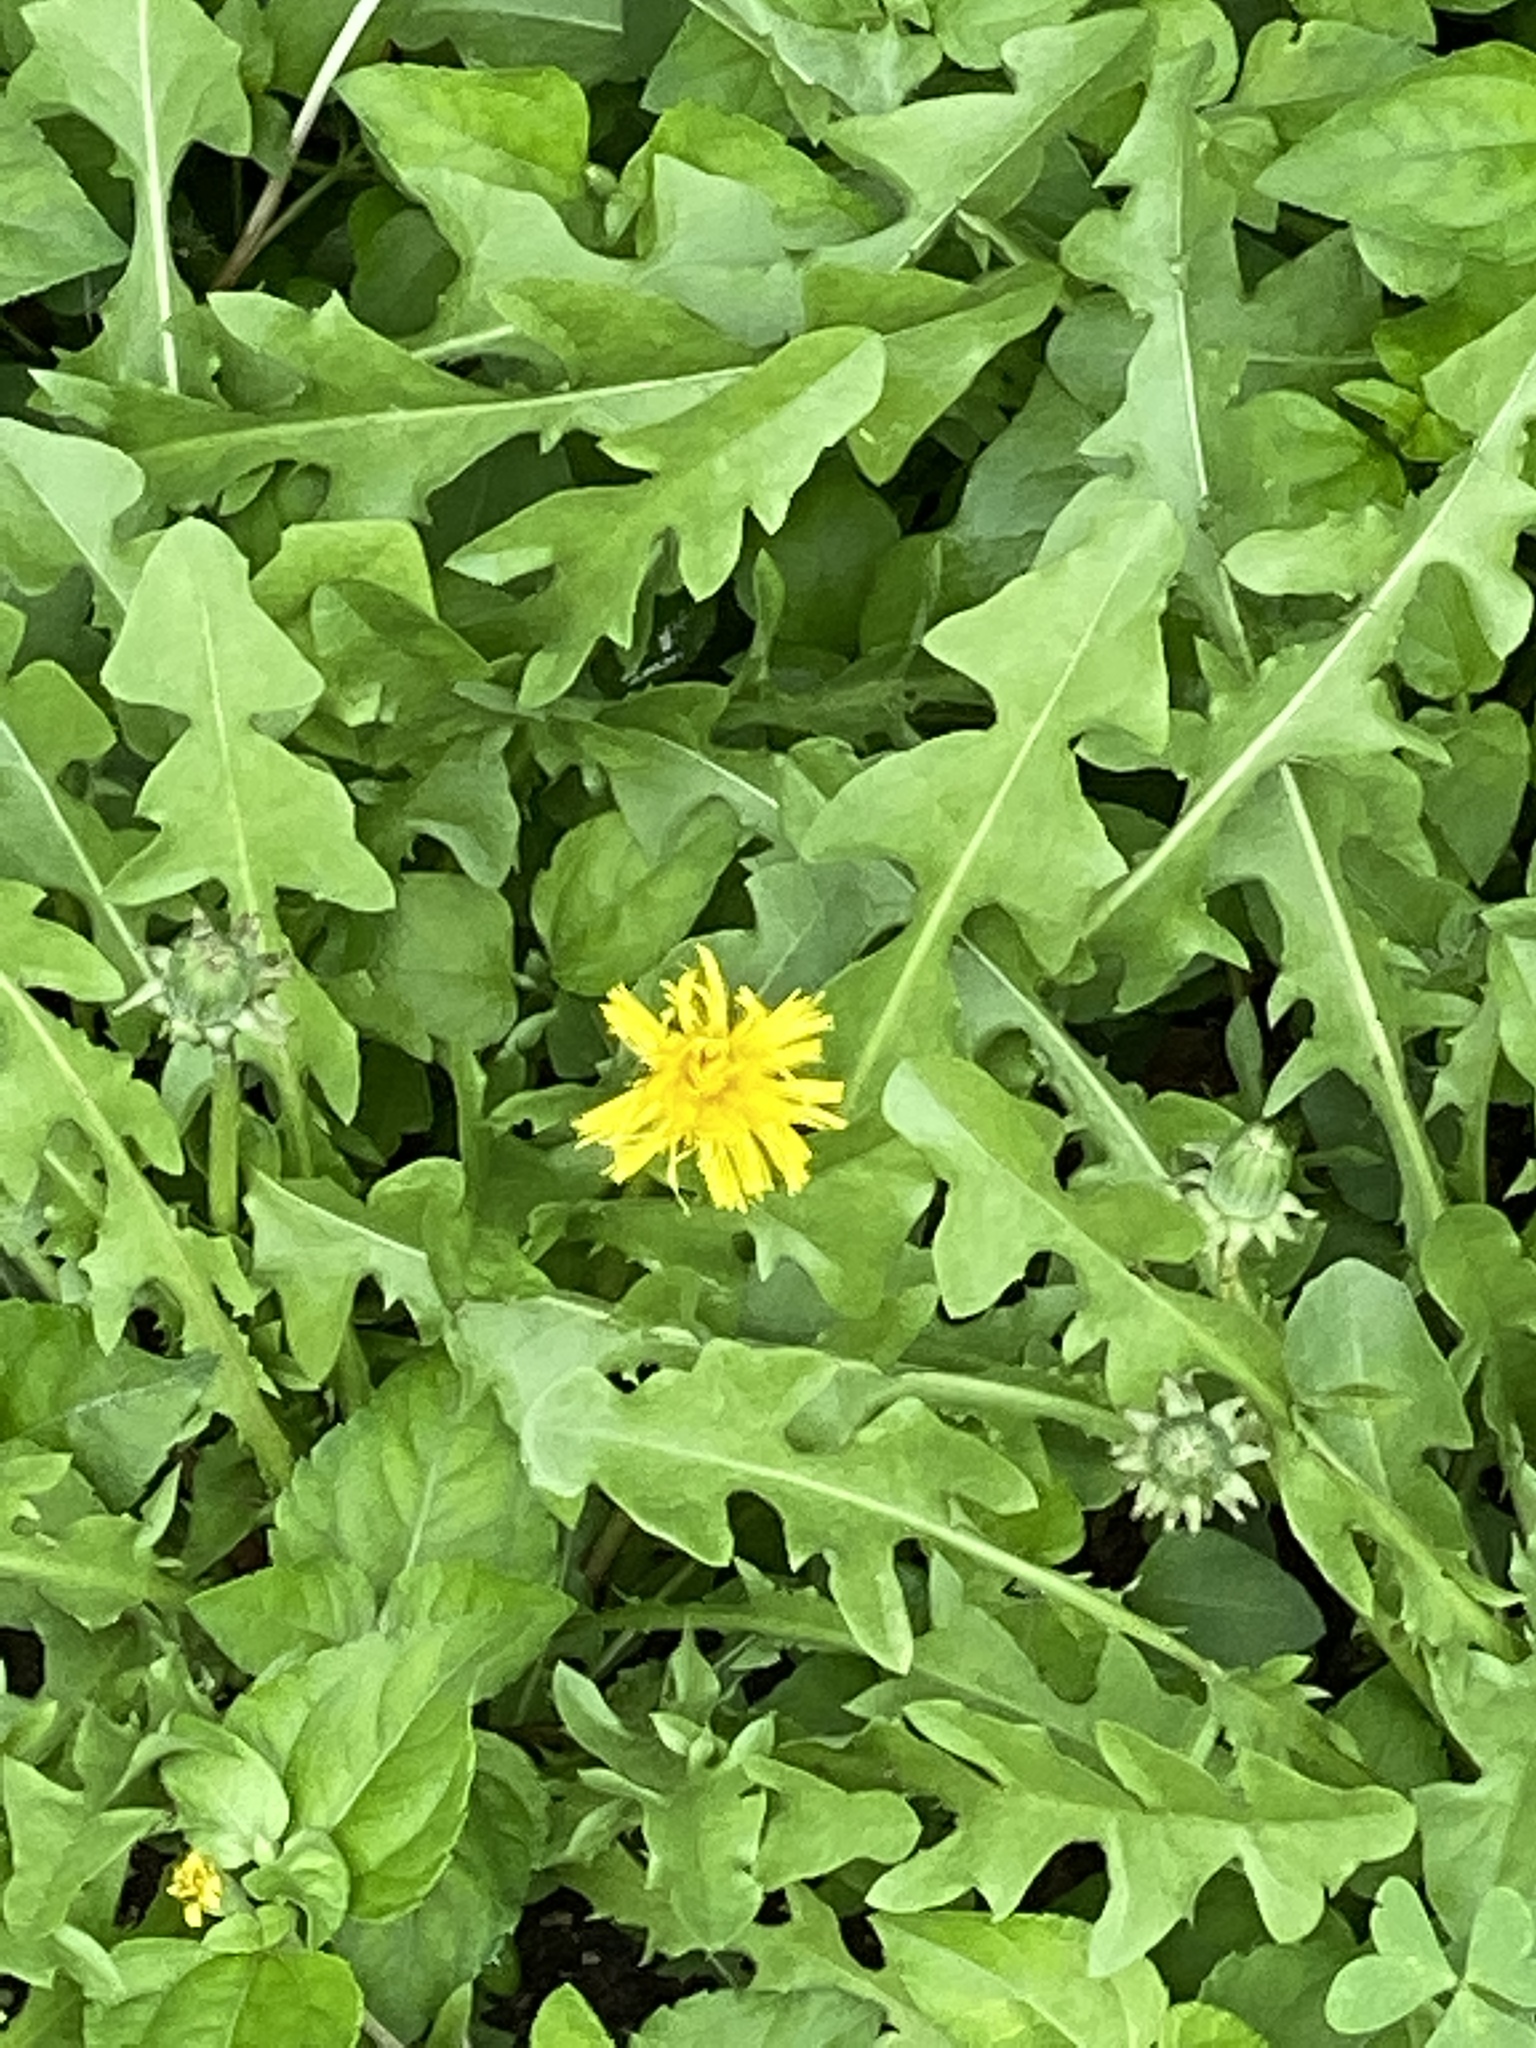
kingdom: Plantae
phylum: Tracheophyta
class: Magnoliopsida
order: Asterales
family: Asteraceae
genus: Taraxacum
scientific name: Taraxacum officinale
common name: Common dandelion
